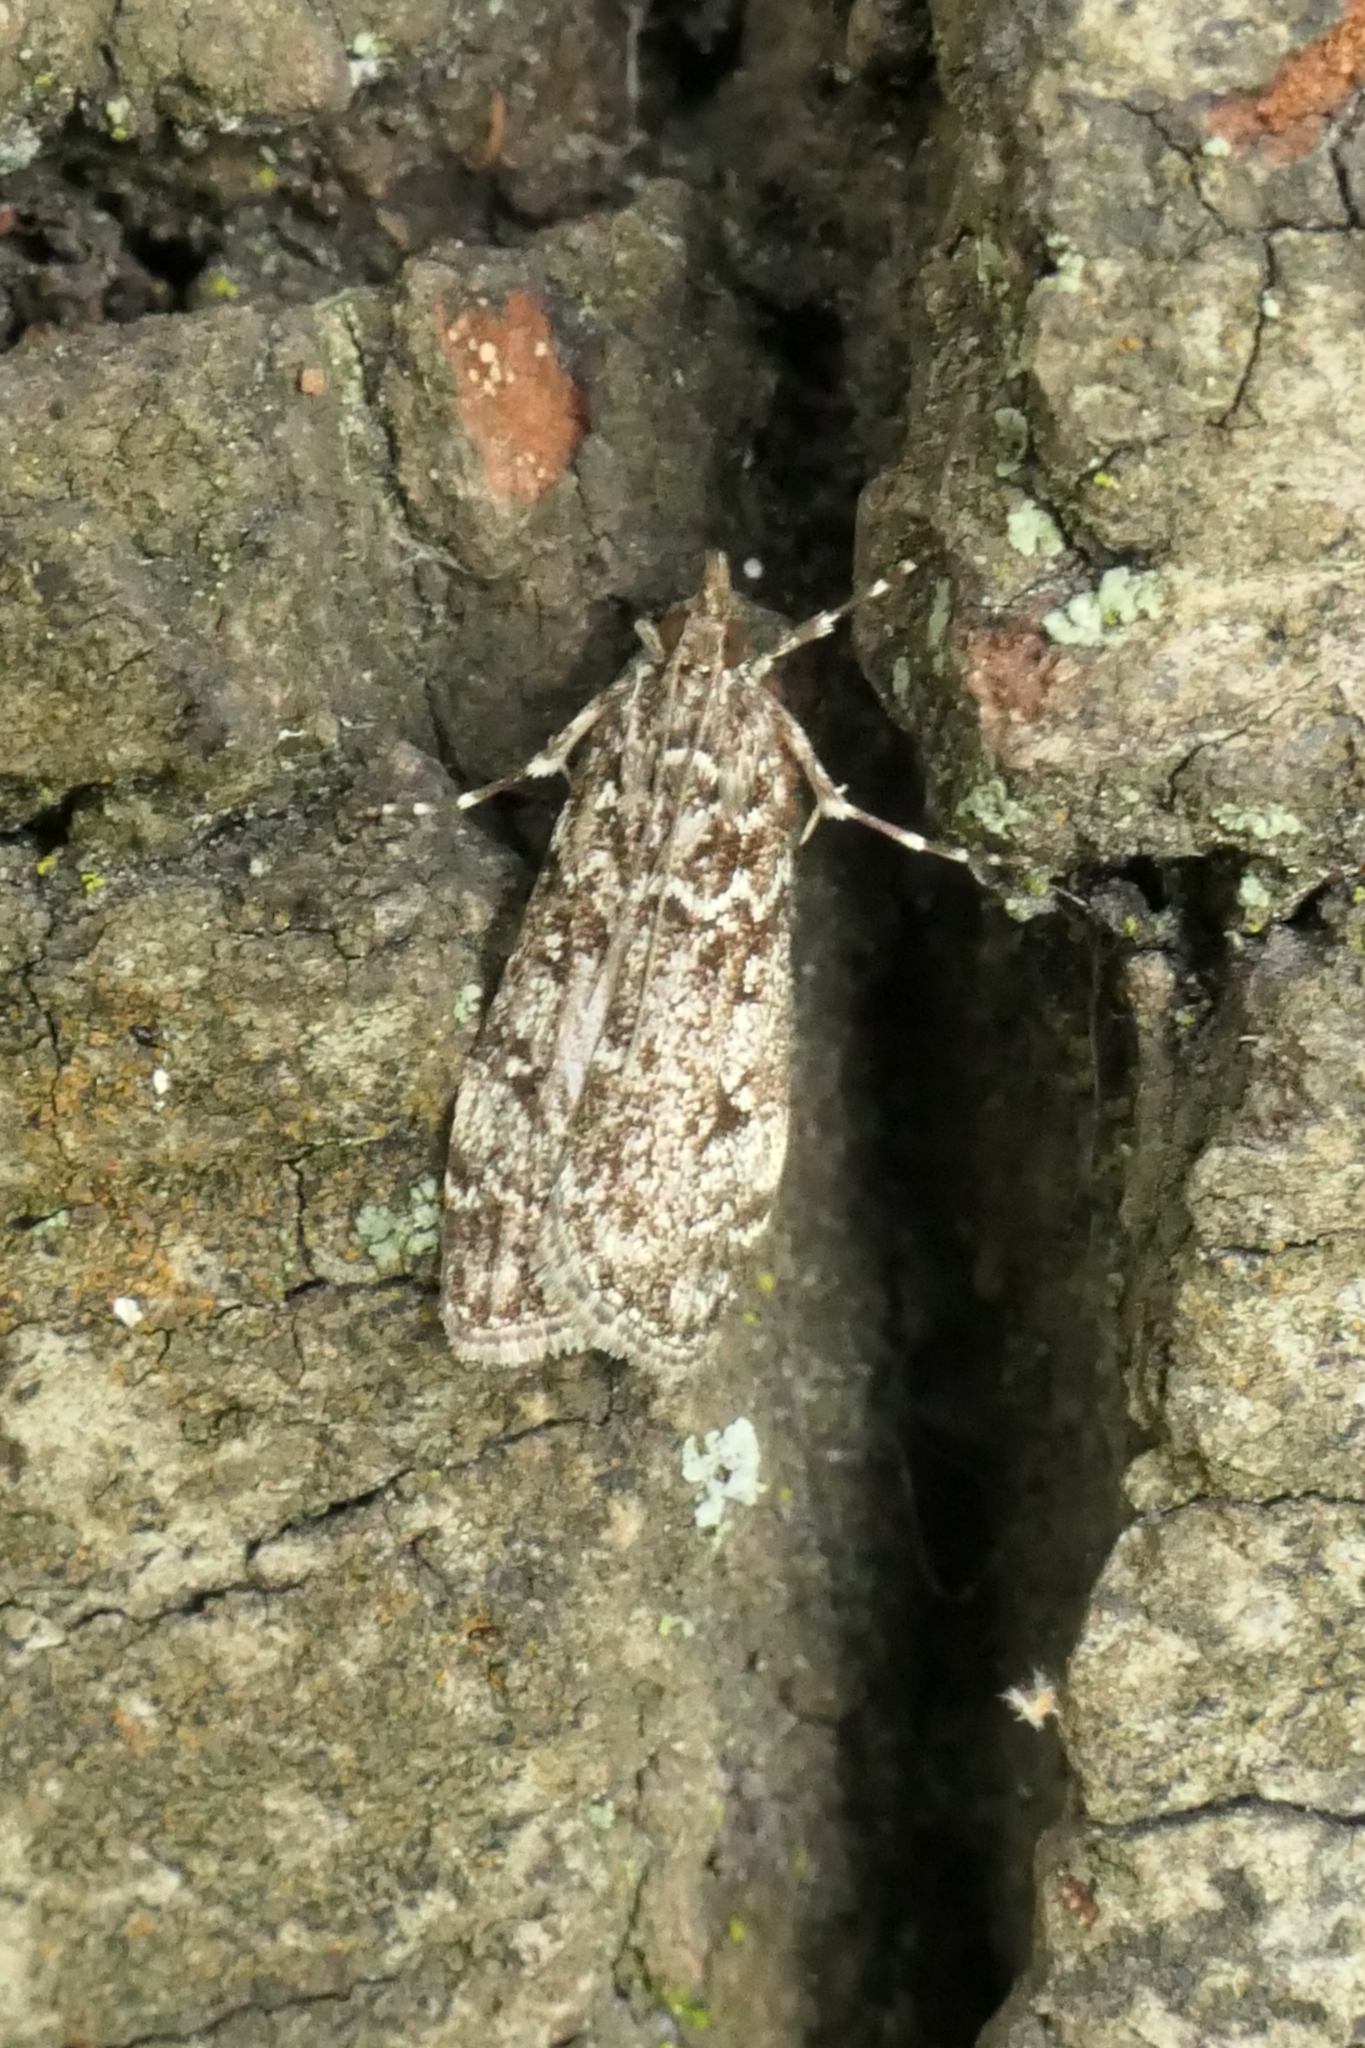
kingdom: Animalia
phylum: Arthropoda
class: Insecta
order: Lepidoptera
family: Crambidae
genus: Eudonia
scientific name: Eudonia philerga
